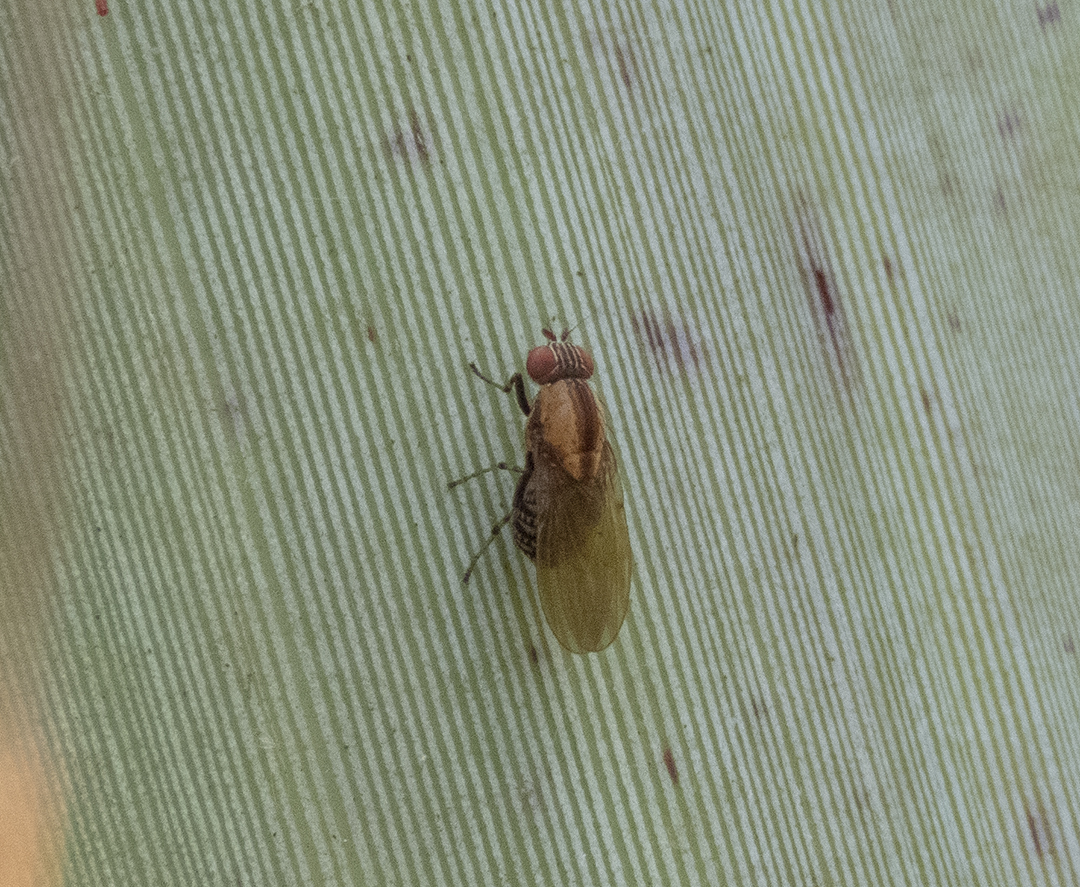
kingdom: Animalia
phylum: Arthropoda
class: Insecta
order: Diptera
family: Lauxaniidae
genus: Sapromyza
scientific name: Sapromyza neozelandica
